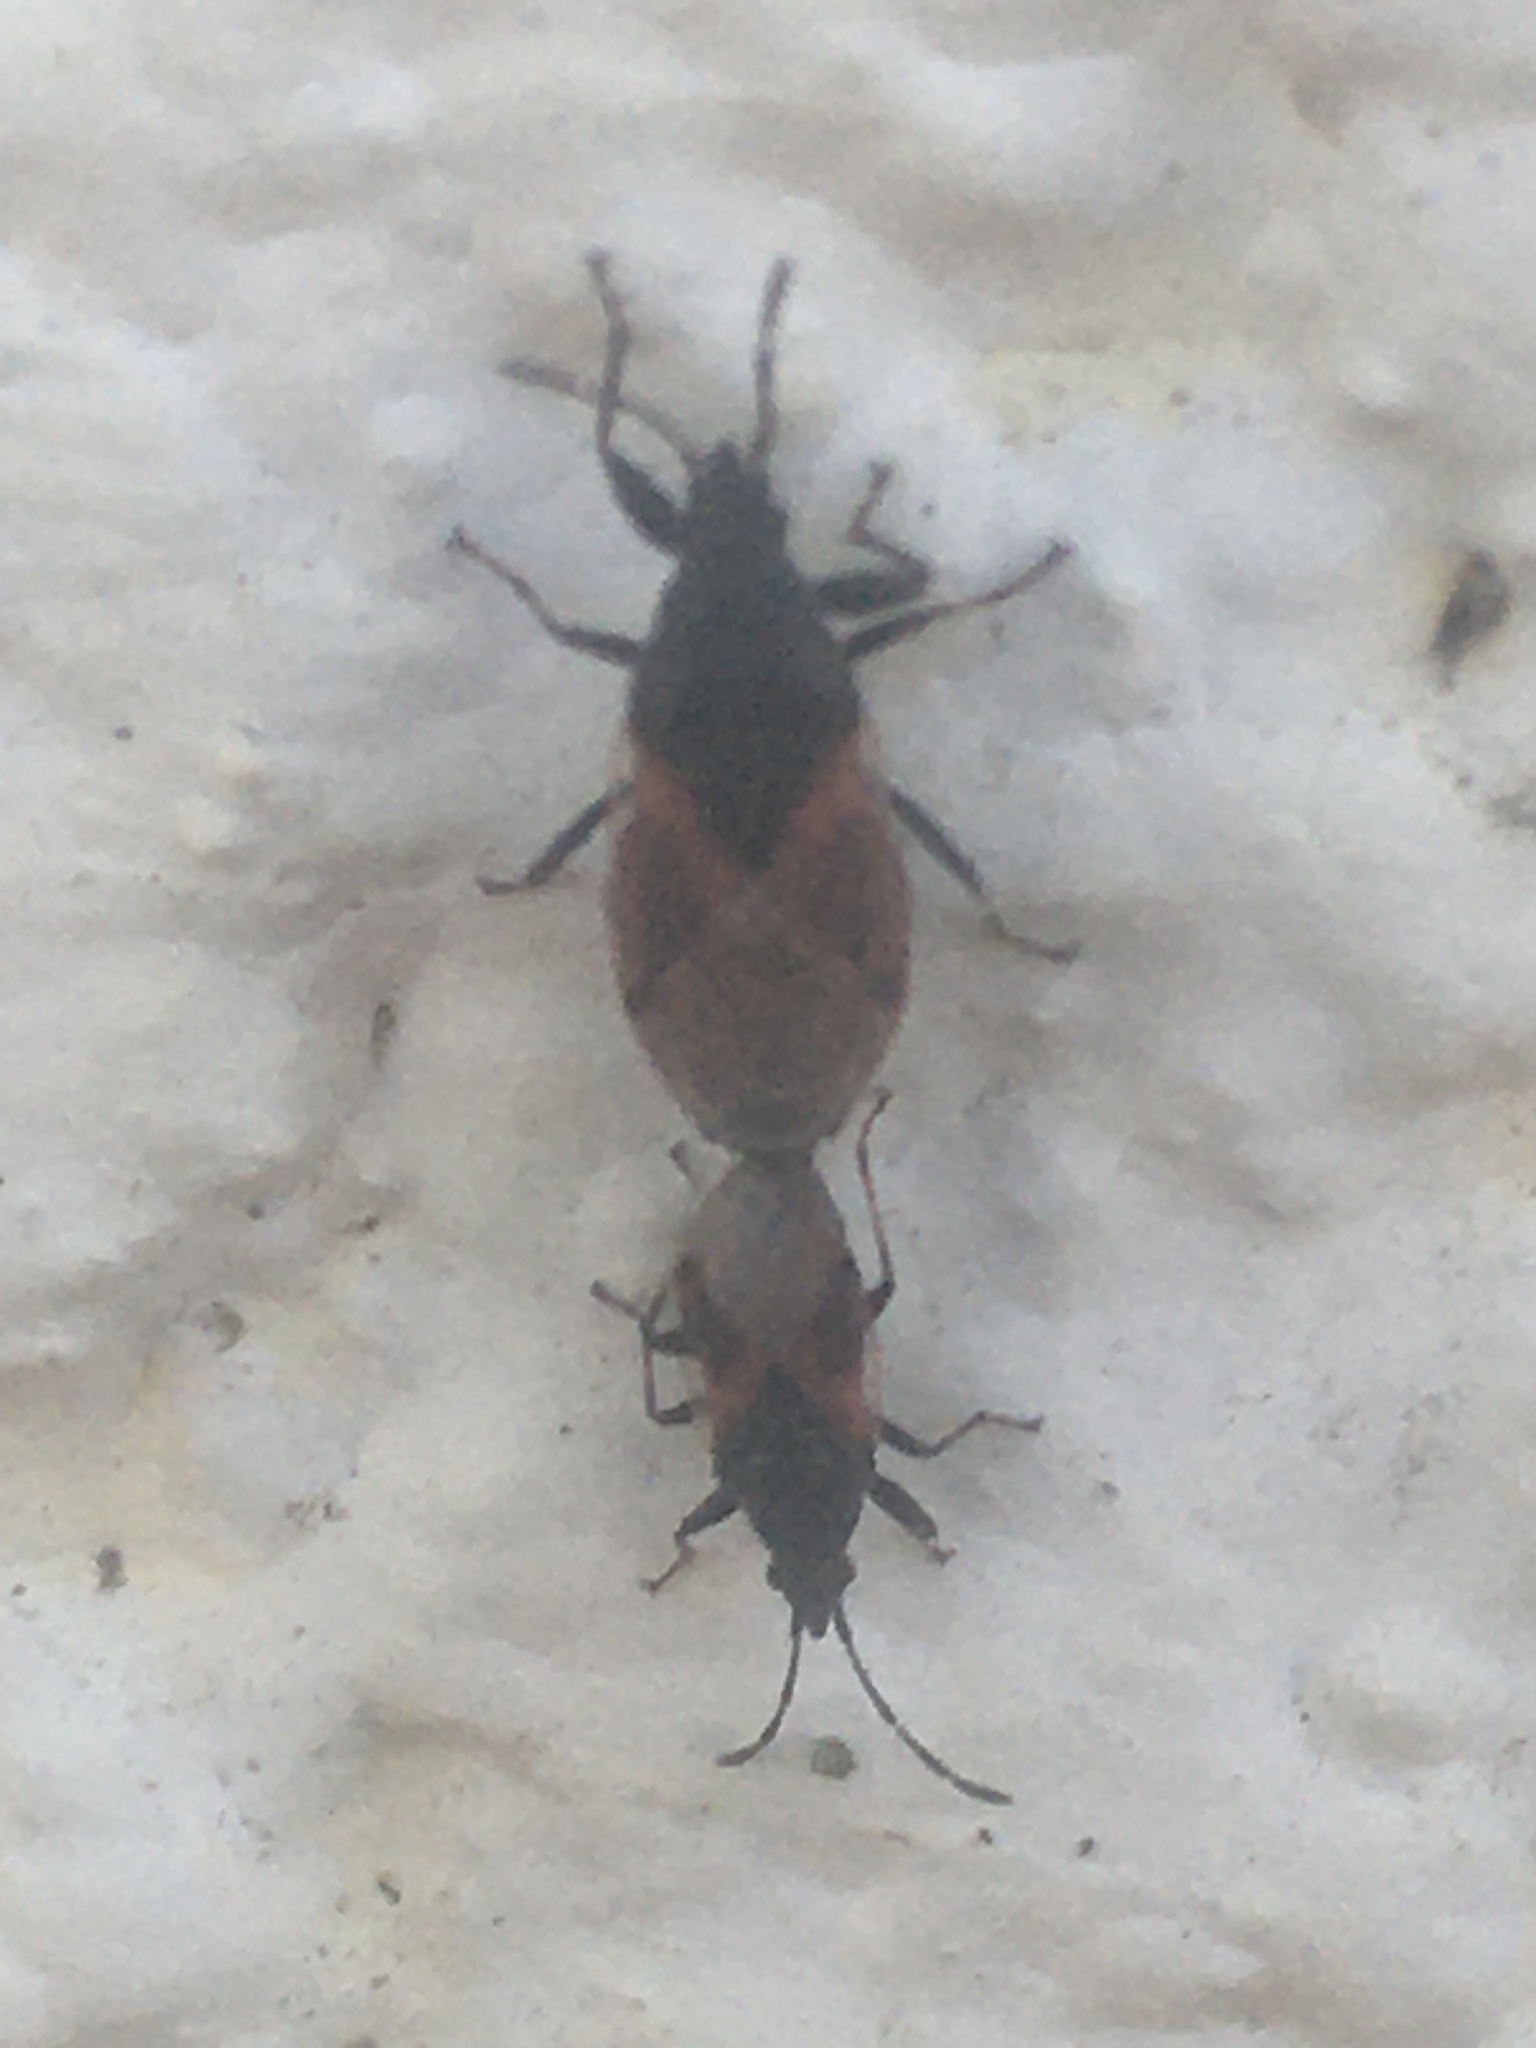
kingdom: Animalia
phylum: Arthropoda
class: Insecta
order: Hemiptera
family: Oxycarenidae
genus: Oxycarenus
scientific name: Oxycarenus lavaterae
